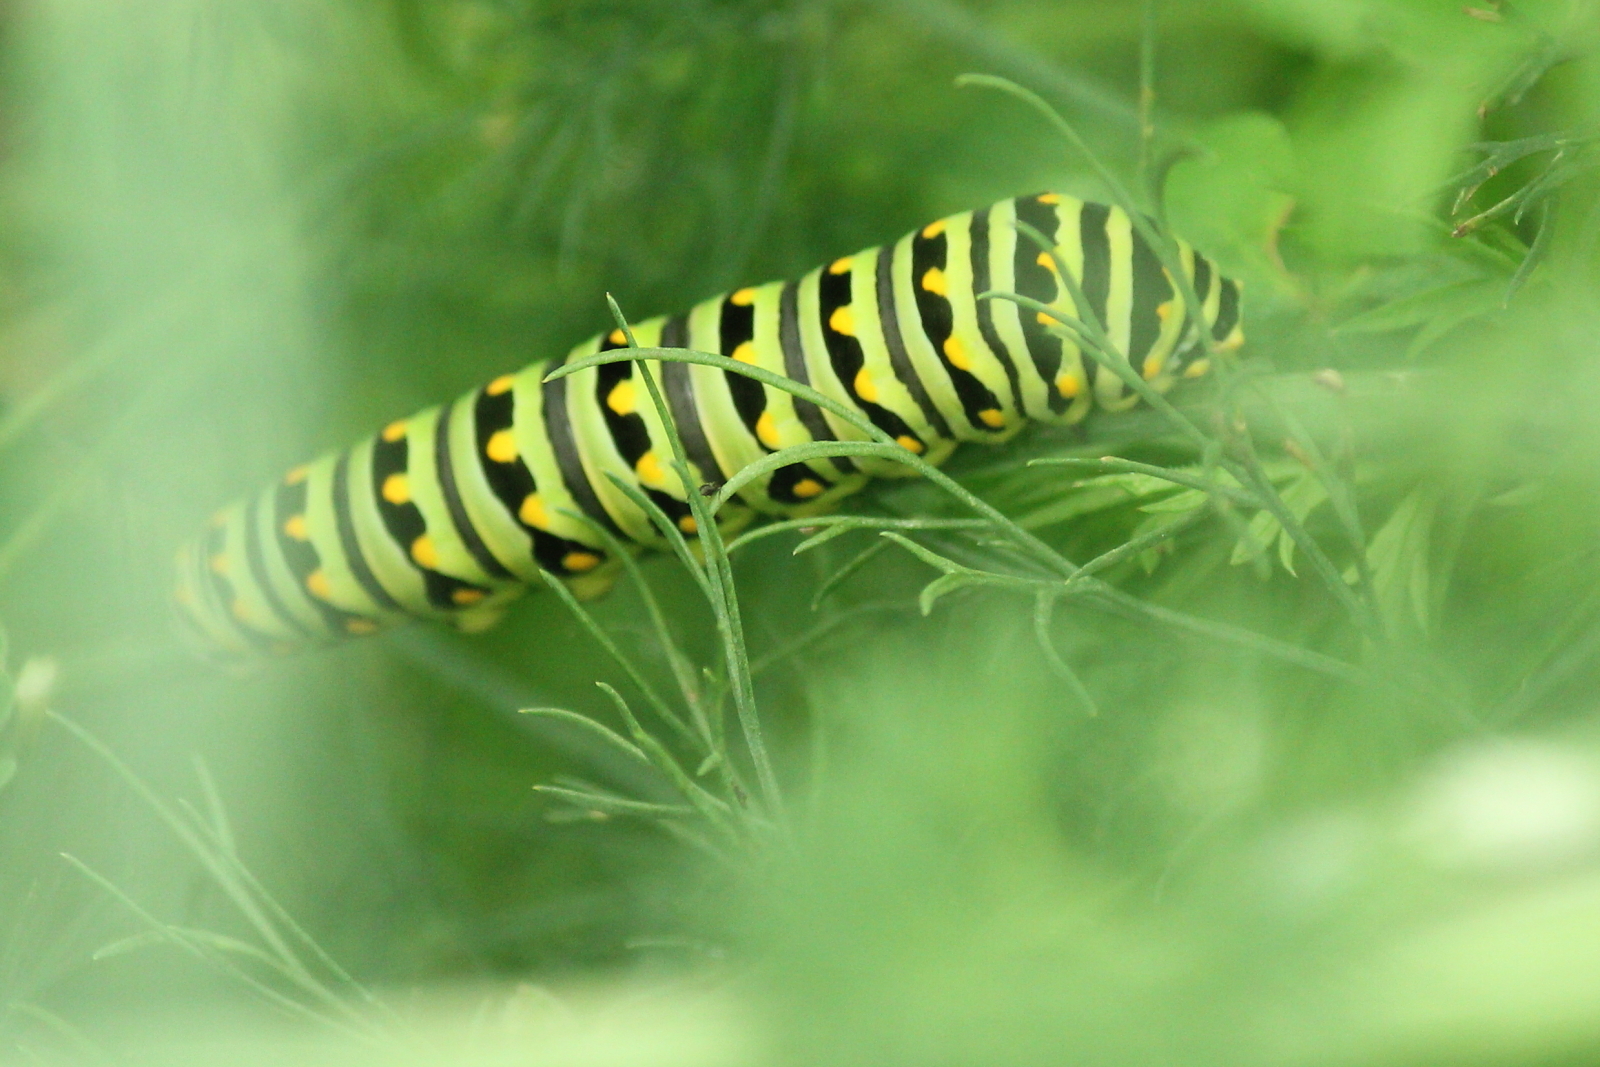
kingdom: Animalia
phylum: Arthropoda
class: Insecta
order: Lepidoptera
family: Papilionidae
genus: Papilio
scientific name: Papilio polyxenes
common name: Black swallowtail
